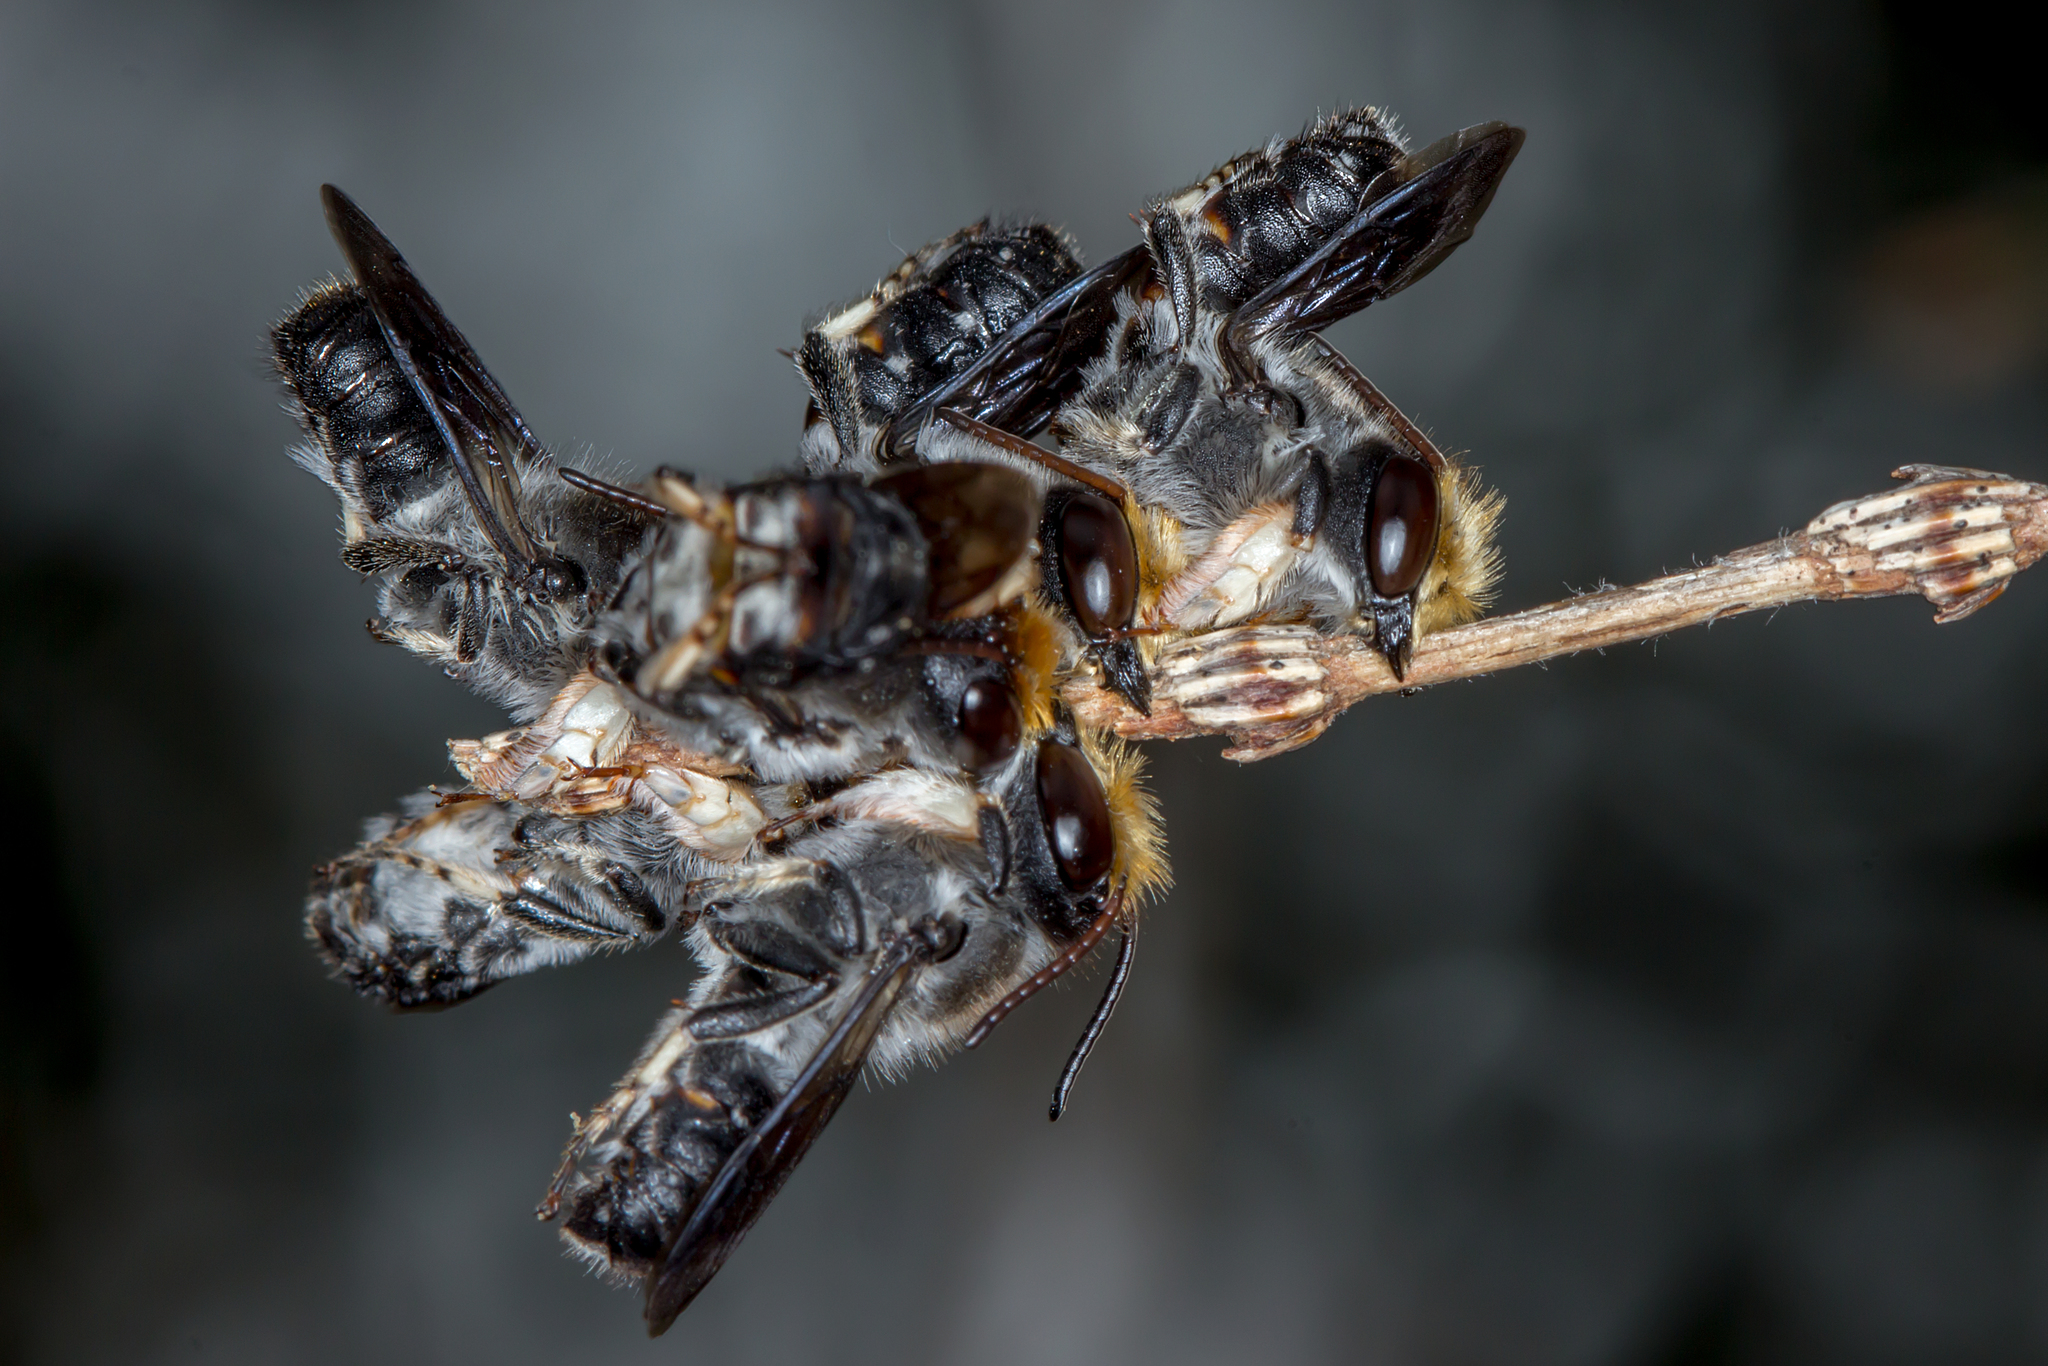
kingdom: Animalia
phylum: Arthropoda
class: Insecta
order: Hymenoptera
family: Megachilidae
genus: Megachile
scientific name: Megachile lucidiventris
